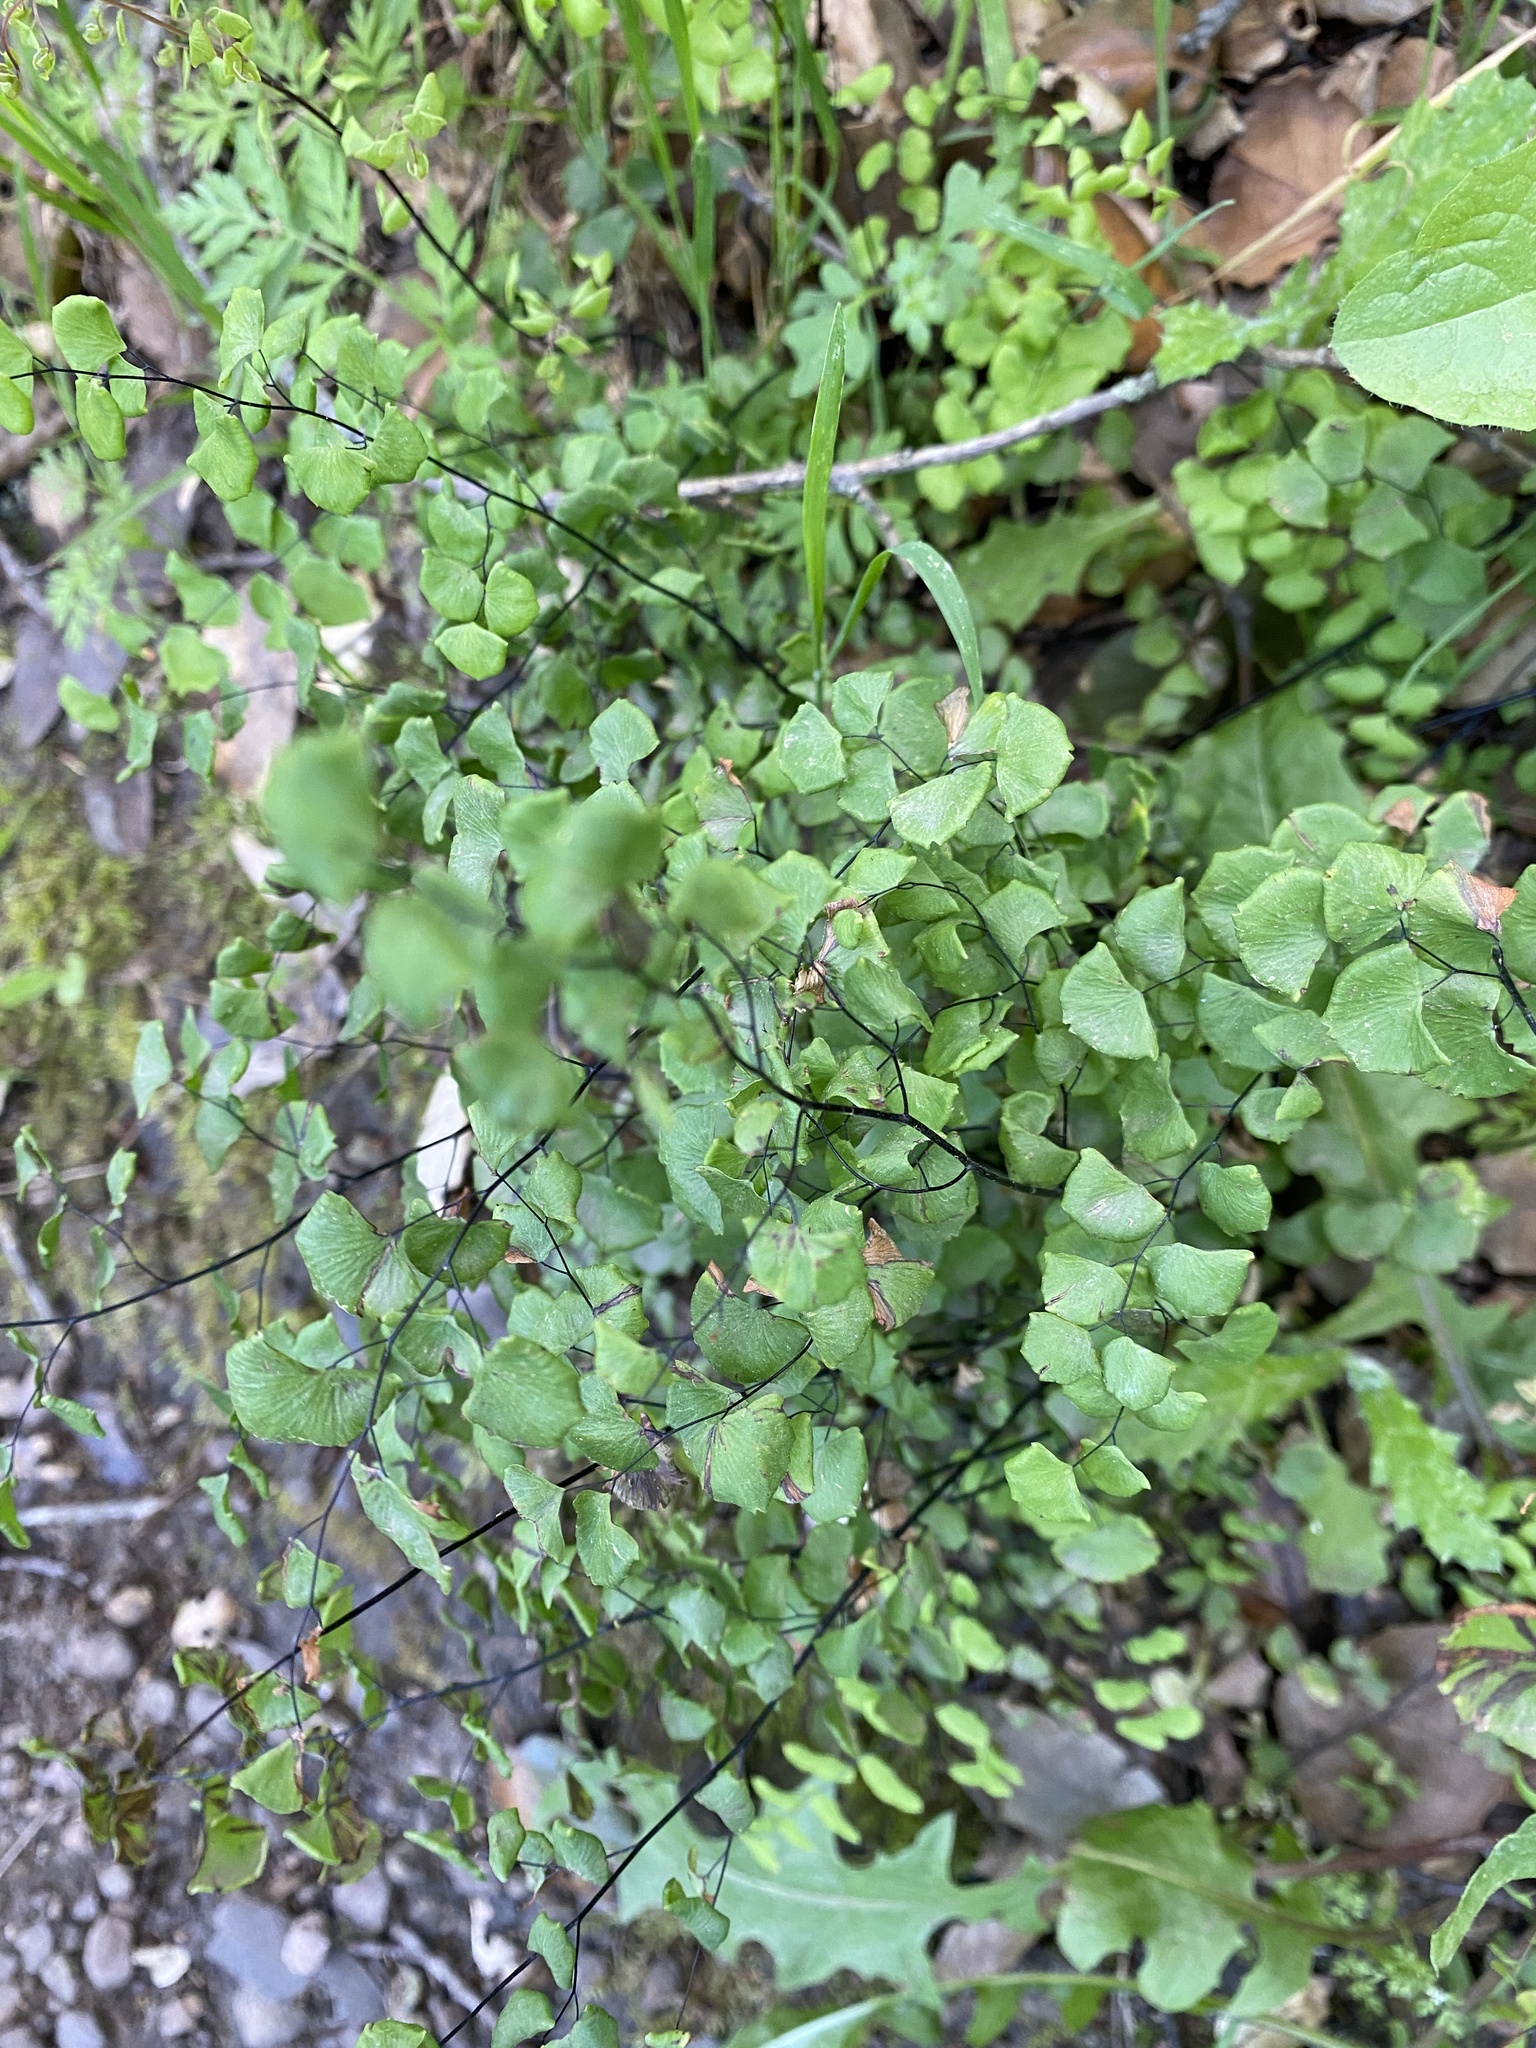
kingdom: Plantae
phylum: Tracheophyta
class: Polypodiopsida
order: Polypodiales
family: Pteridaceae
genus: Adiantum
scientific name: Adiantum jordanii
